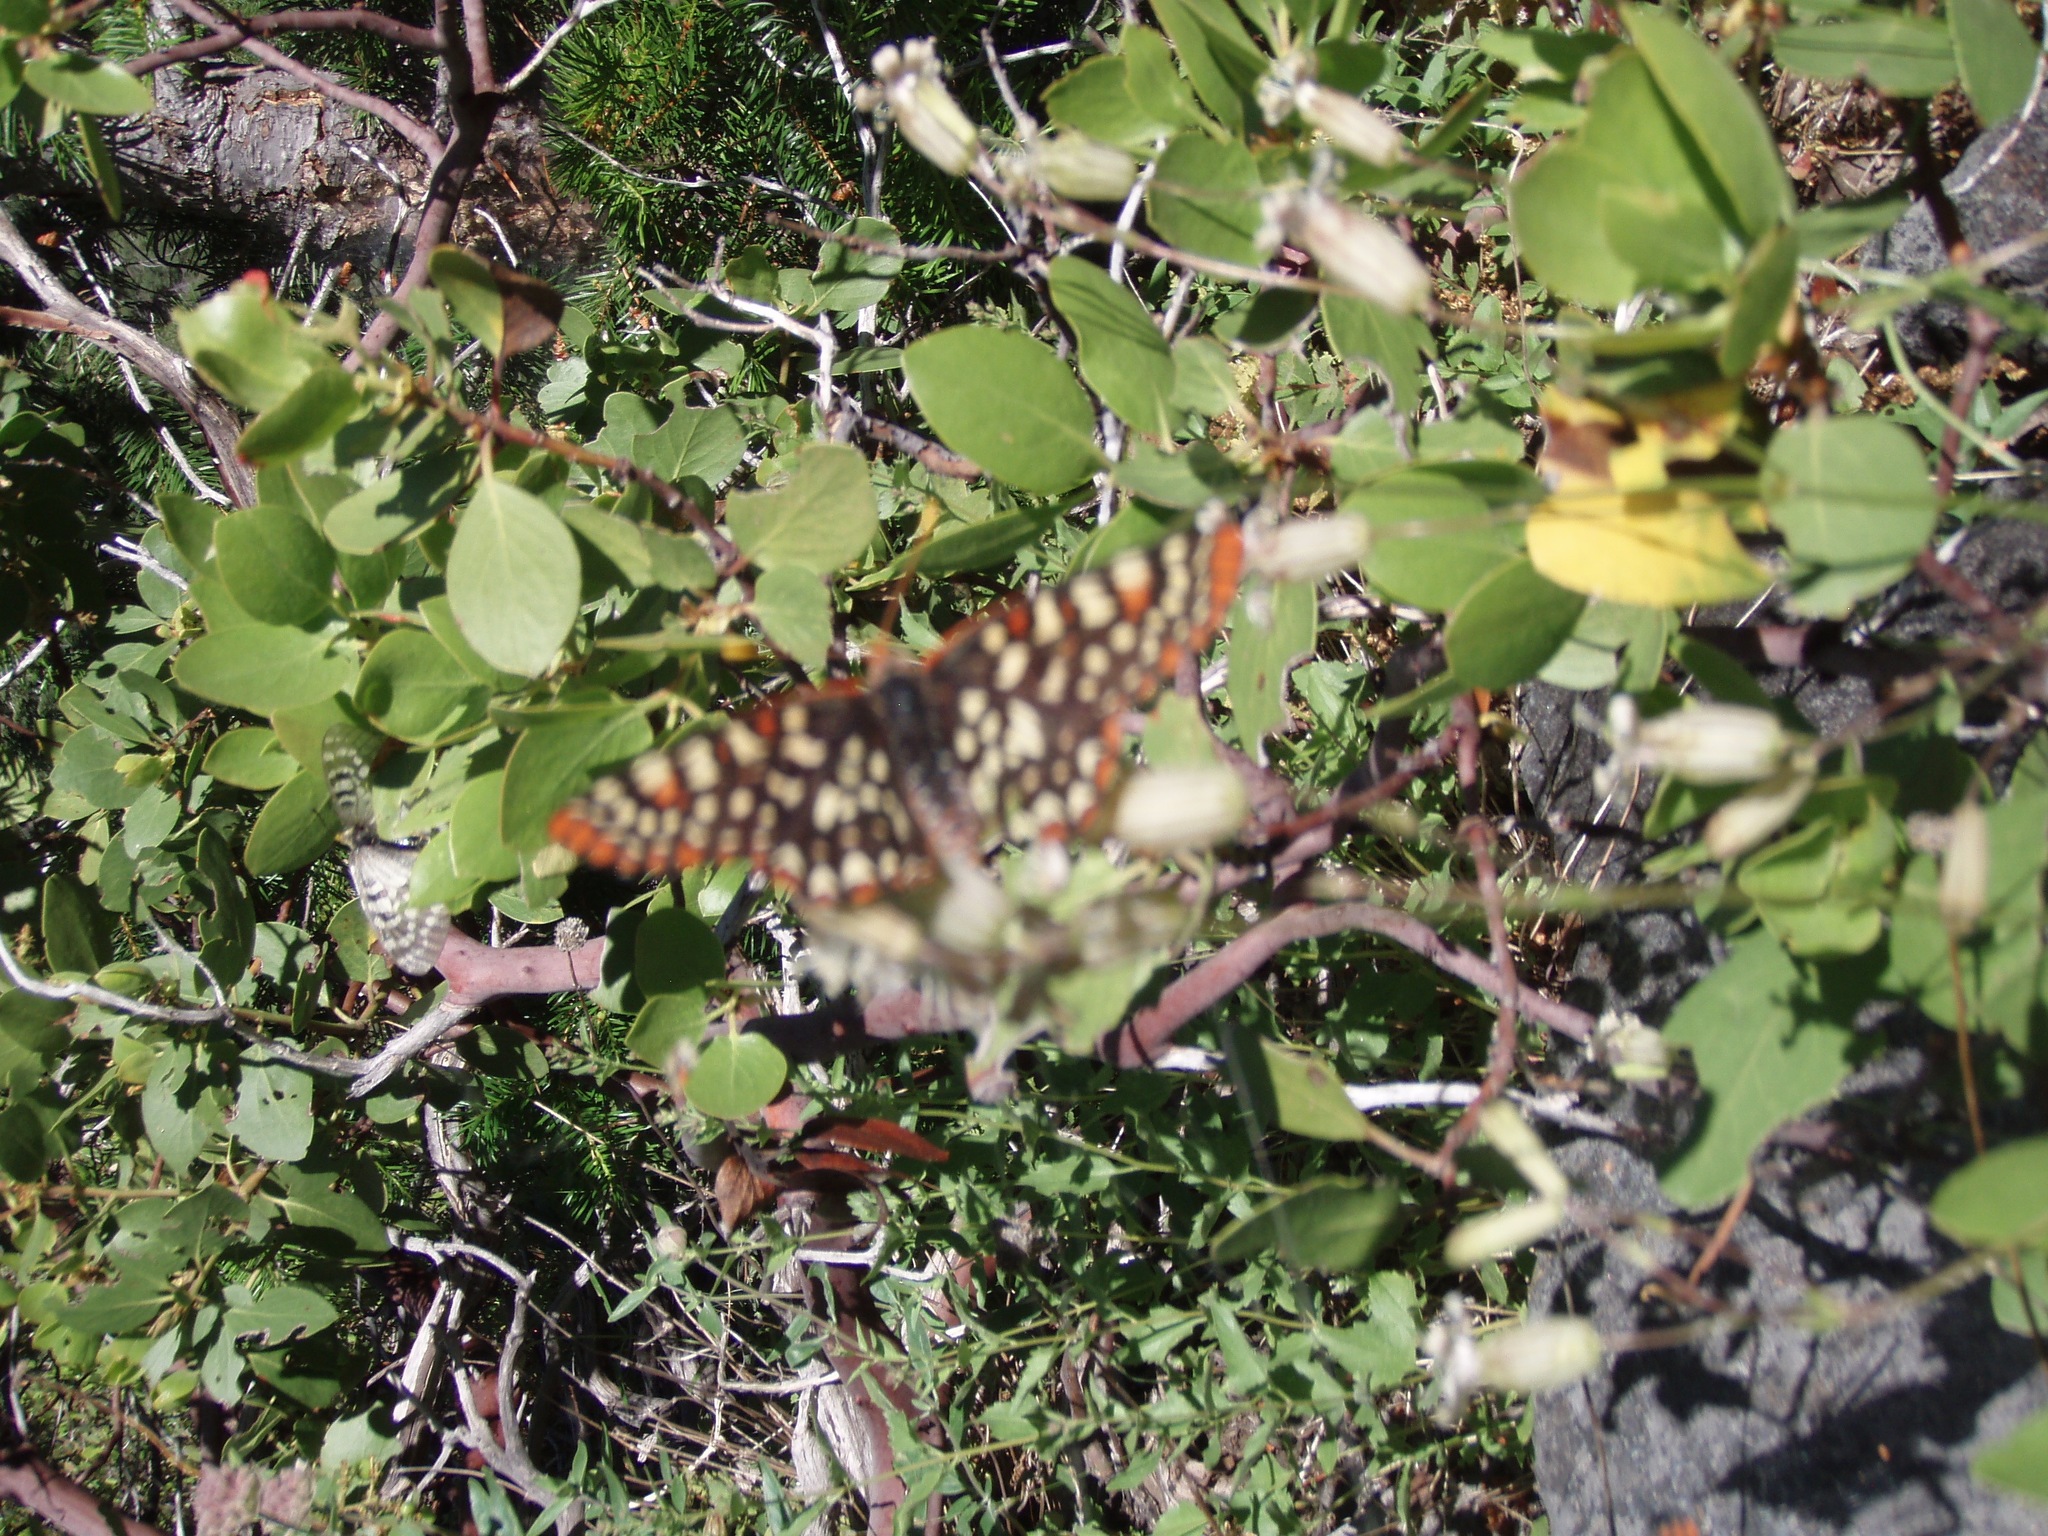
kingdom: Animalia
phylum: Arthropoda
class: Insecta
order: Lepidoptera
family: Nymphalidae
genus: Occidryas
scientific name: Occidryas chalcedona
